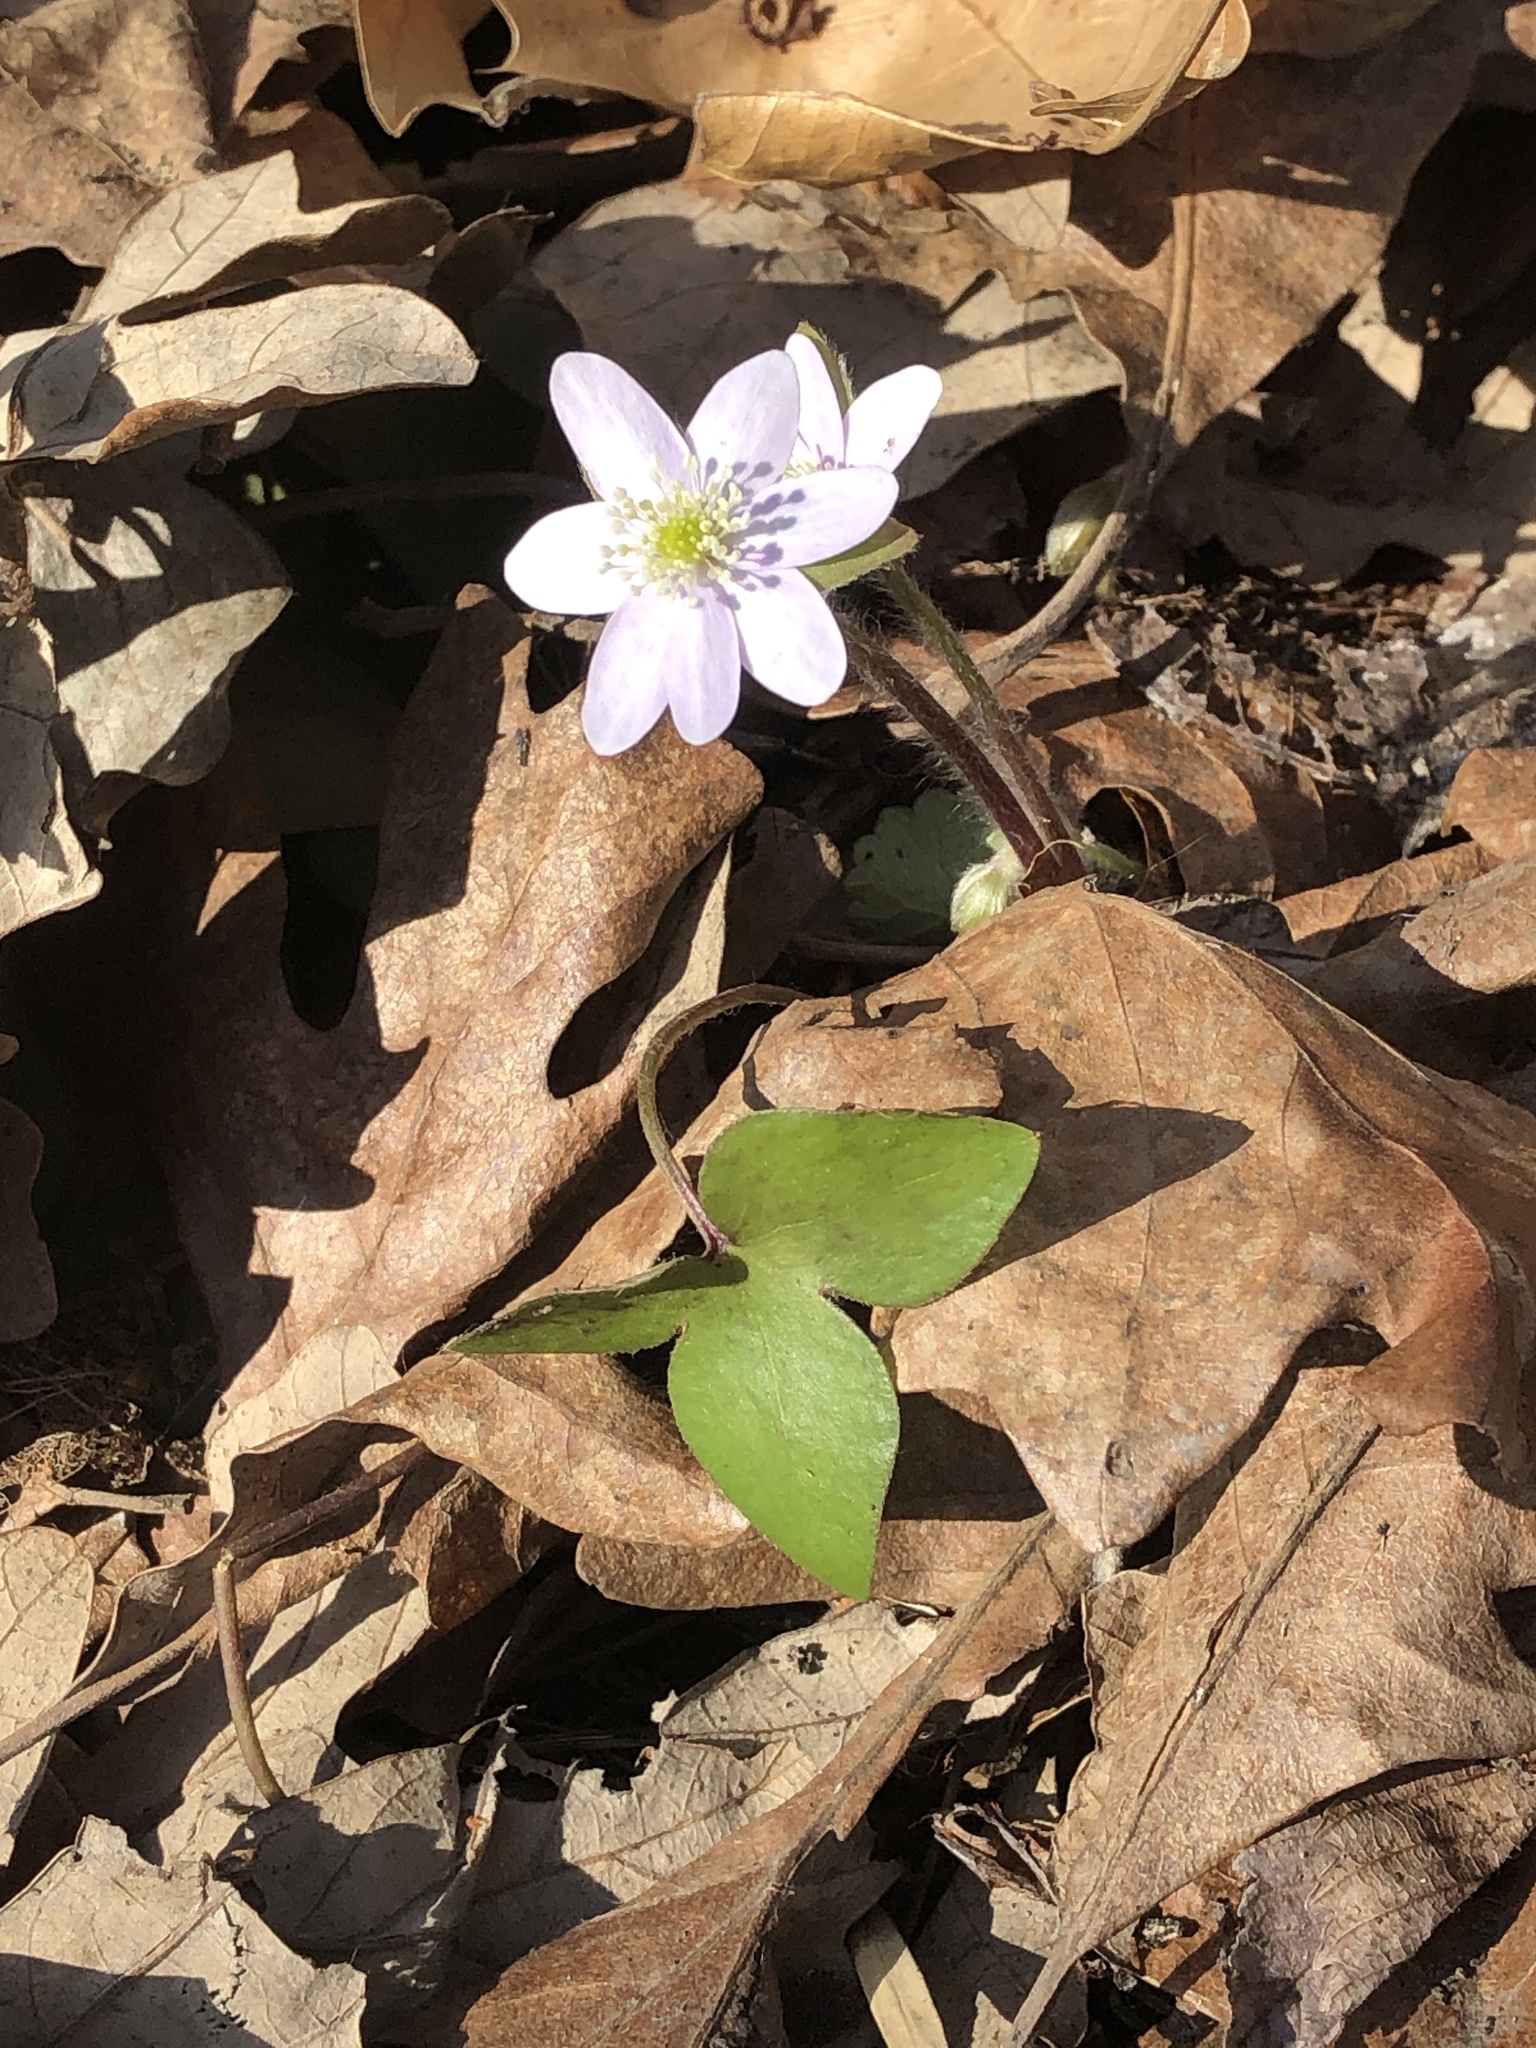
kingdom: Plantae
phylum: Tracheophyta
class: Magnoliopsida
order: Ranunculales
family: Ranunculaceae
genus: Hepatica
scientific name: Hepatica acutiloba
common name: Sharp-lobed hepatica
